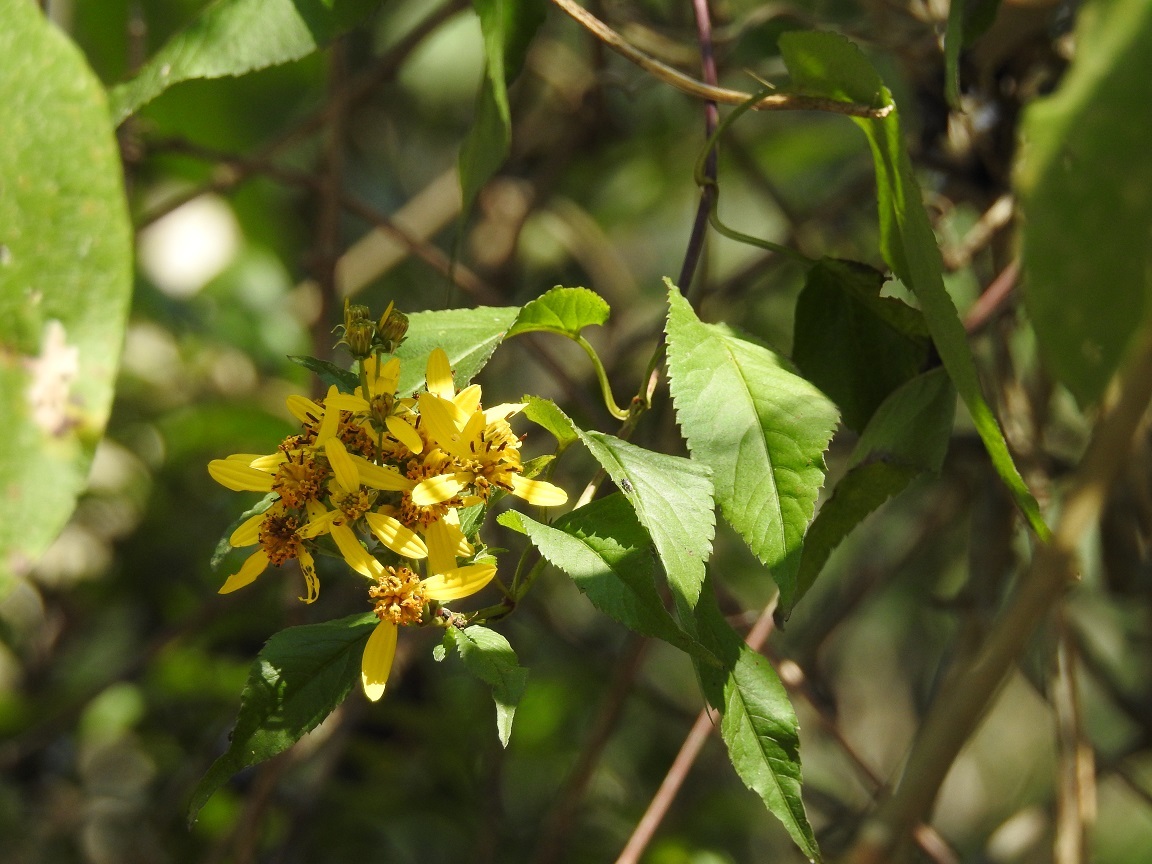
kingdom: Plantae
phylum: Tracheophyta
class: Magnoliopsida
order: Asterales
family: Asteraceae
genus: Bidens
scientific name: Bidens reptans
